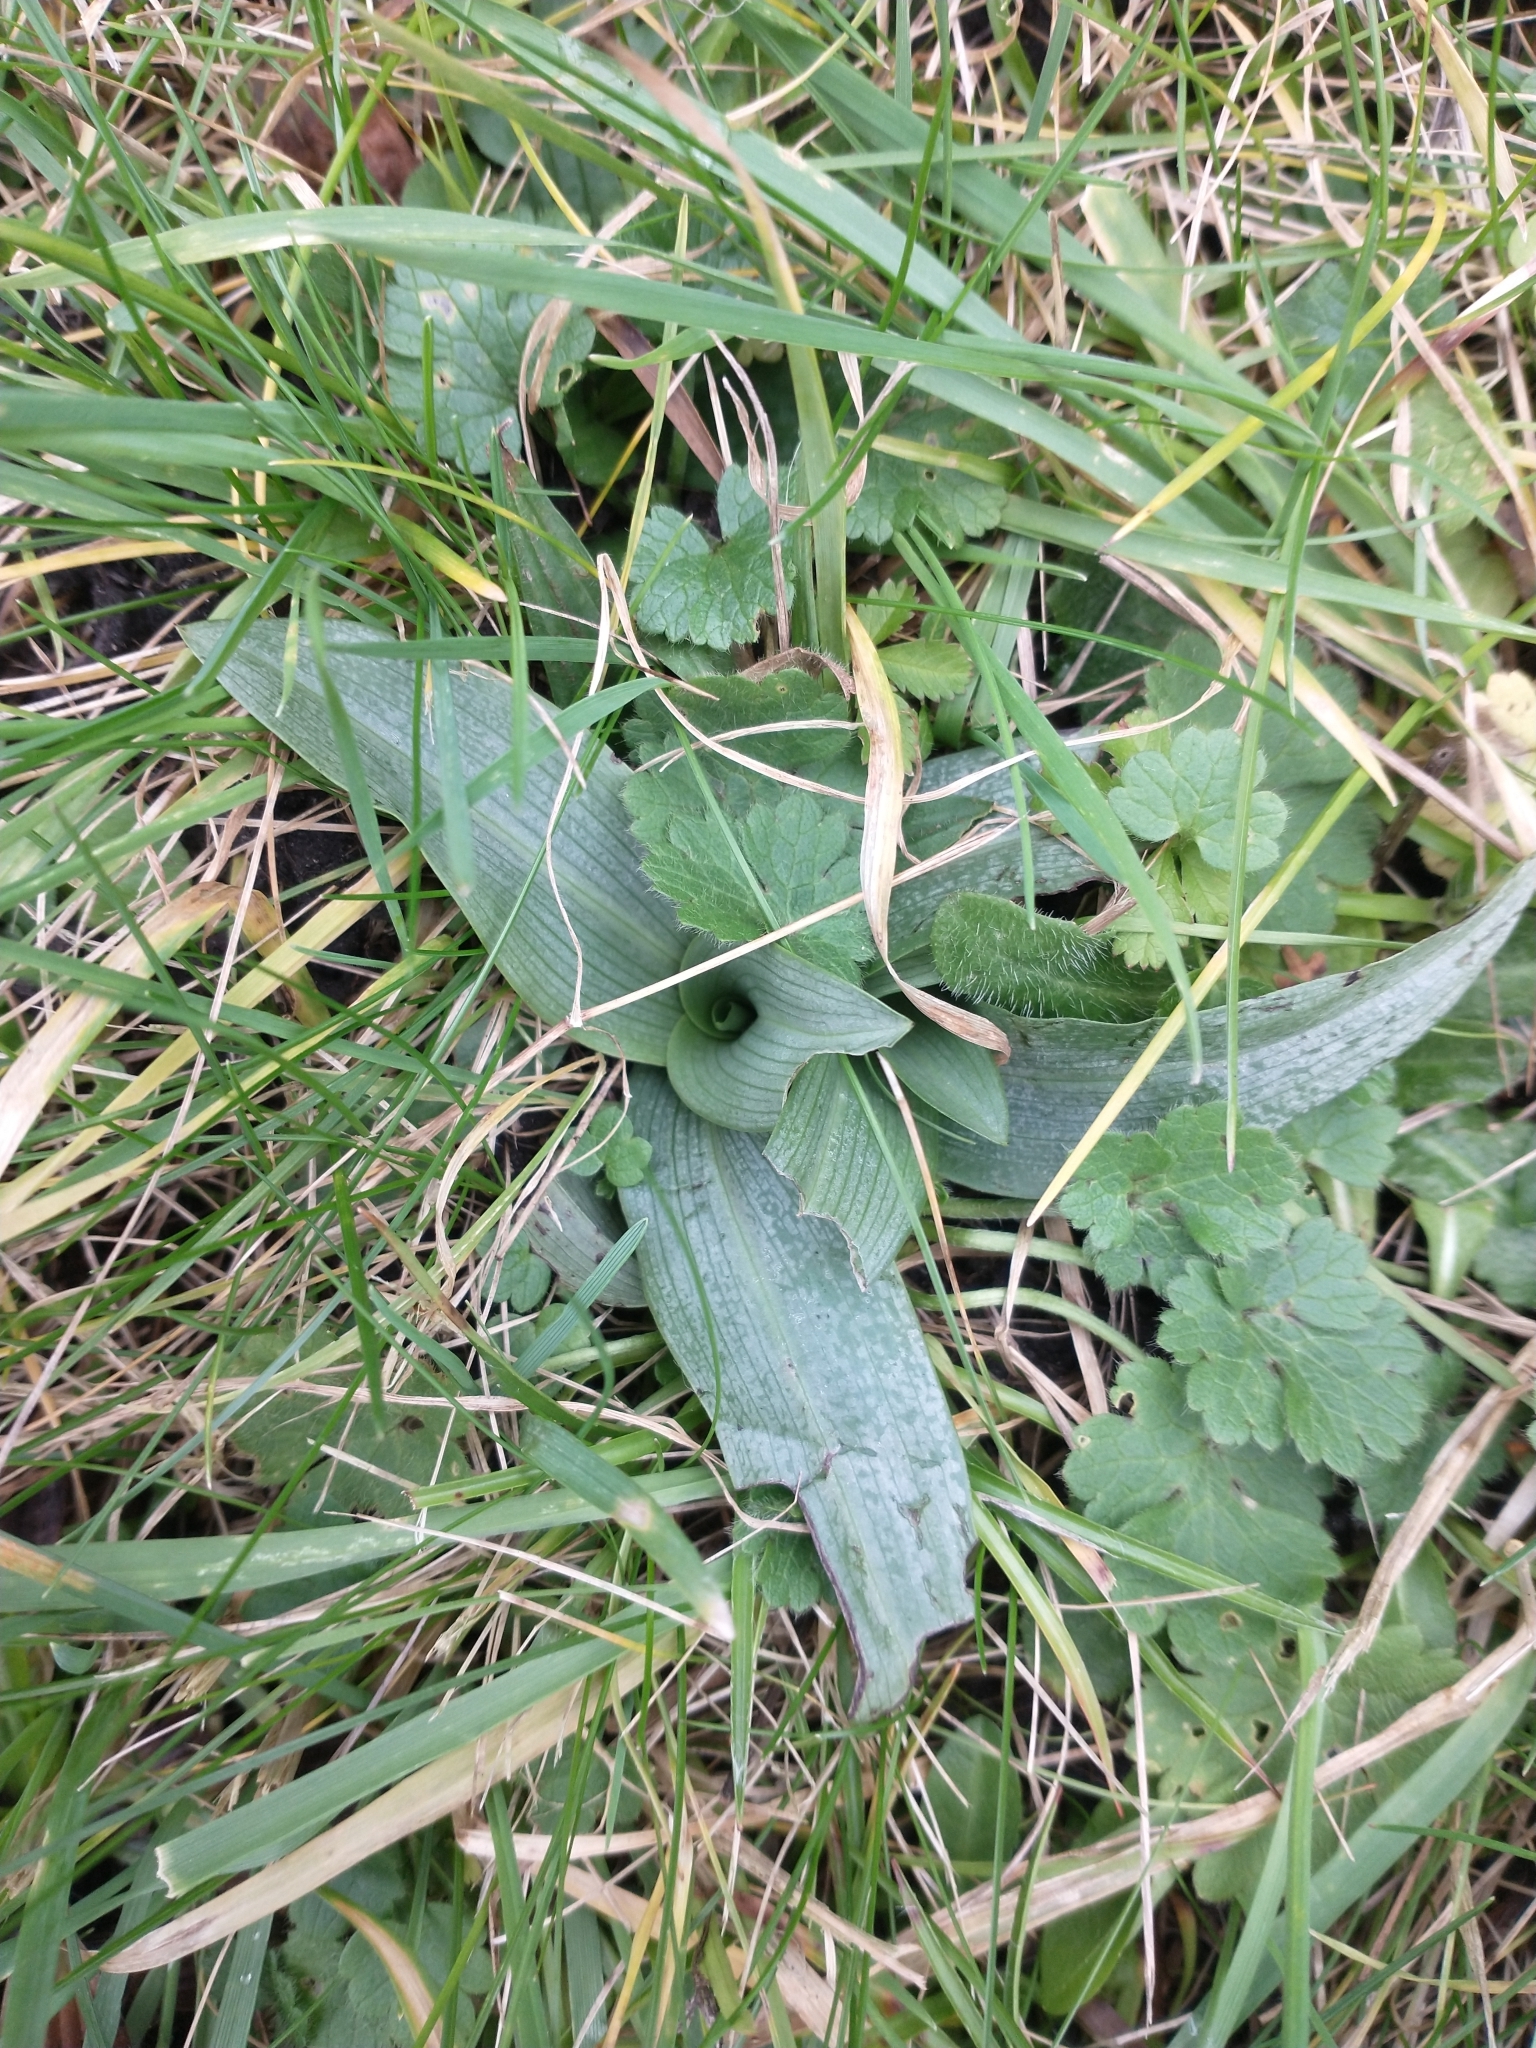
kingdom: Plantae
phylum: Tracheophyta
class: Liliopsida
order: Asparagales
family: Orchidaceae
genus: Ophrys
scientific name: Ophrys apifera
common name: Bee orchid
